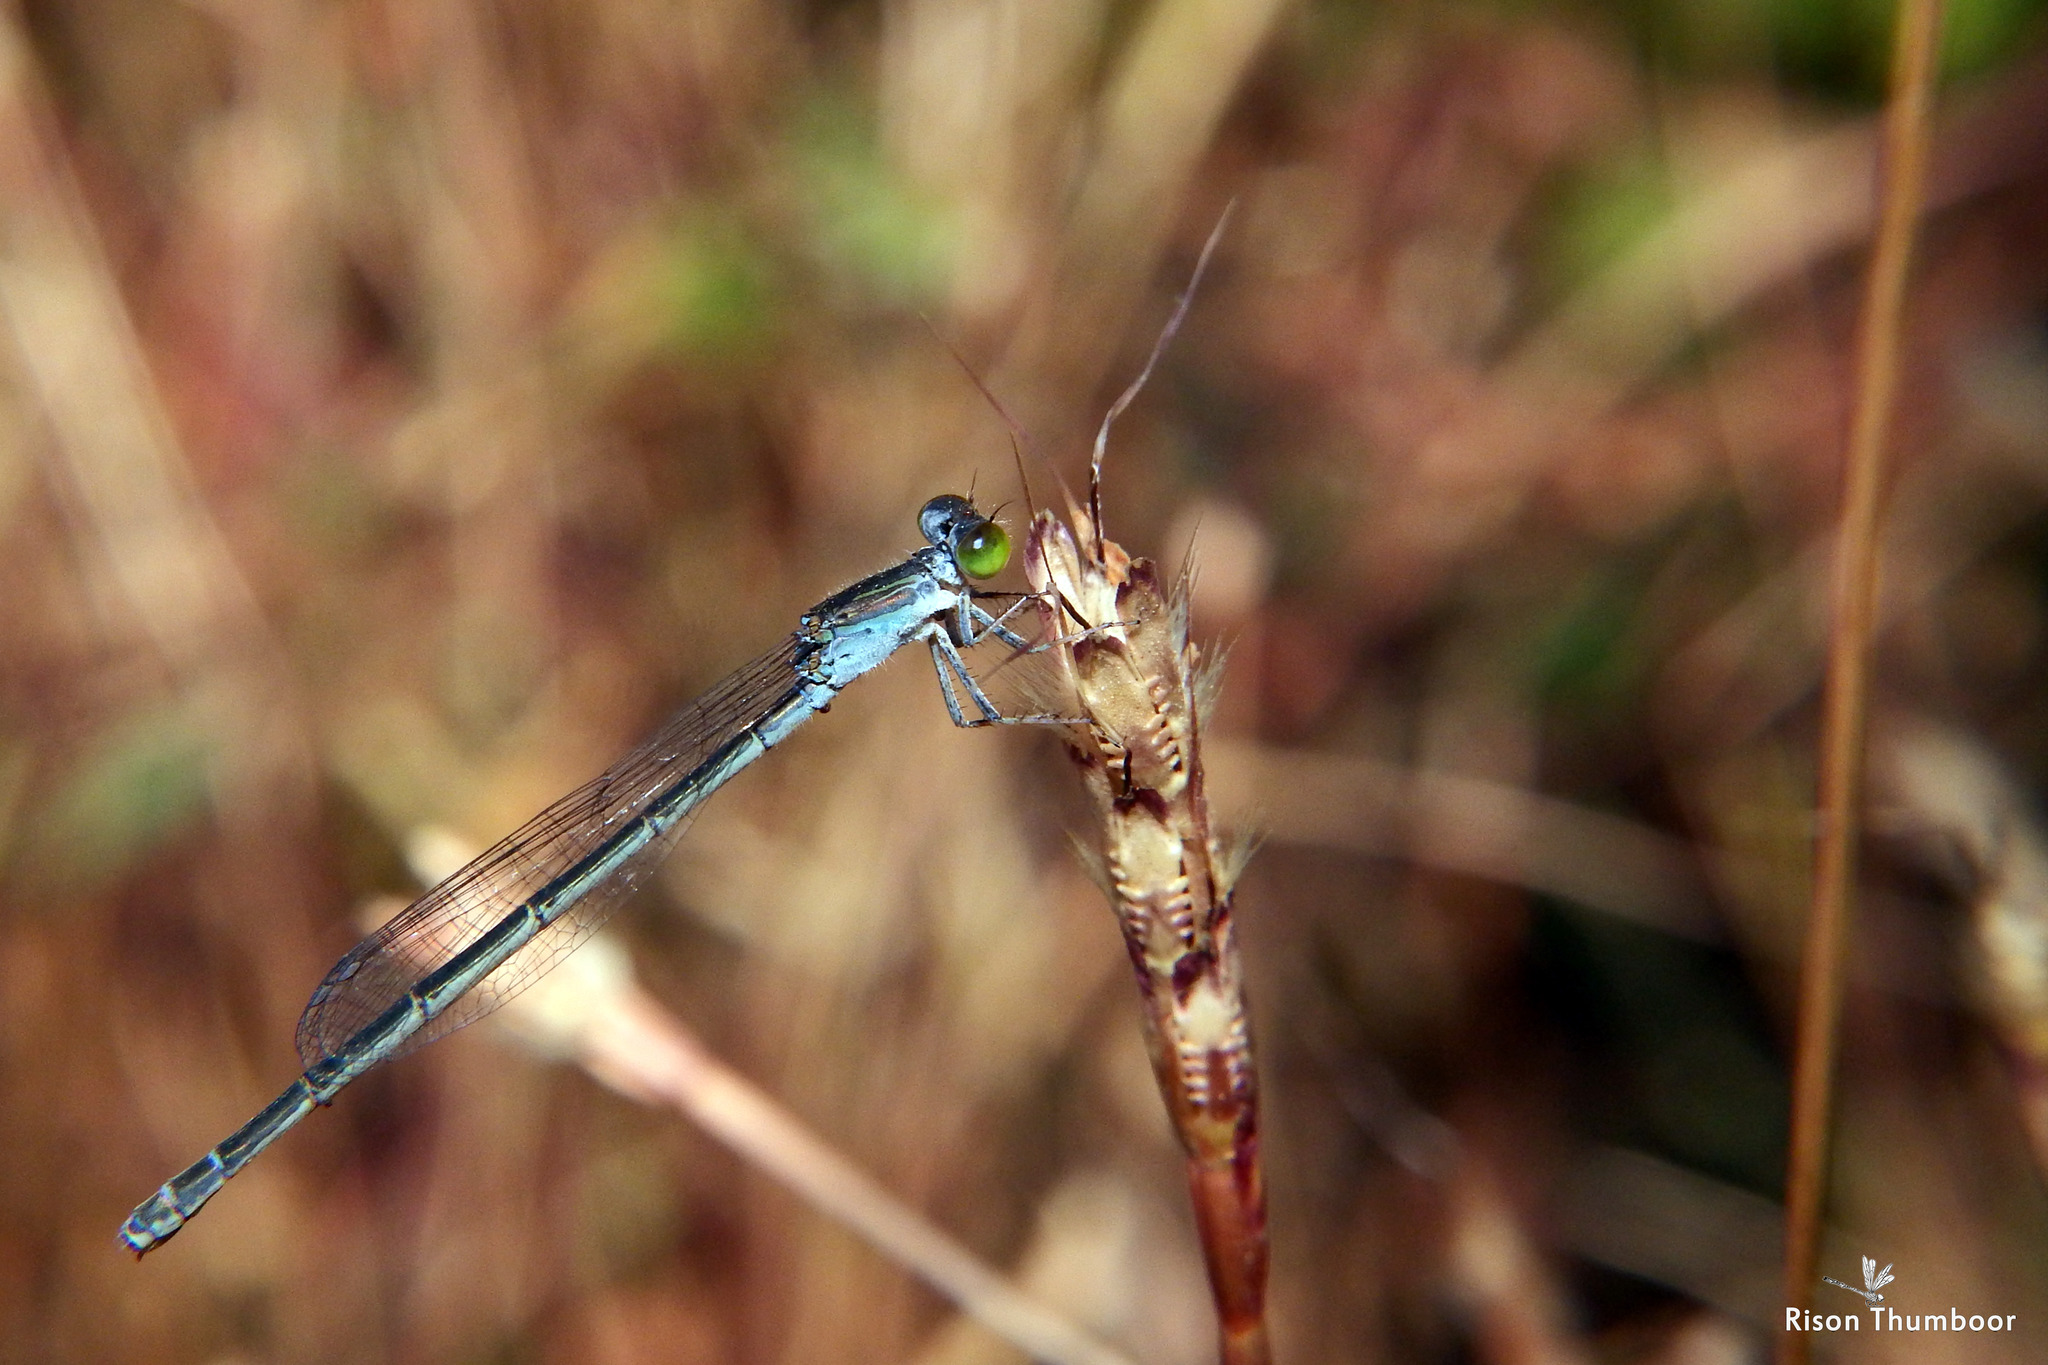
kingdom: Animalia
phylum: Arthropoda
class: Insecta
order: Odonata
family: Coenagrionidae
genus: Paracercion
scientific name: Paracercion calamorum
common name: Dusky lilysquatter
